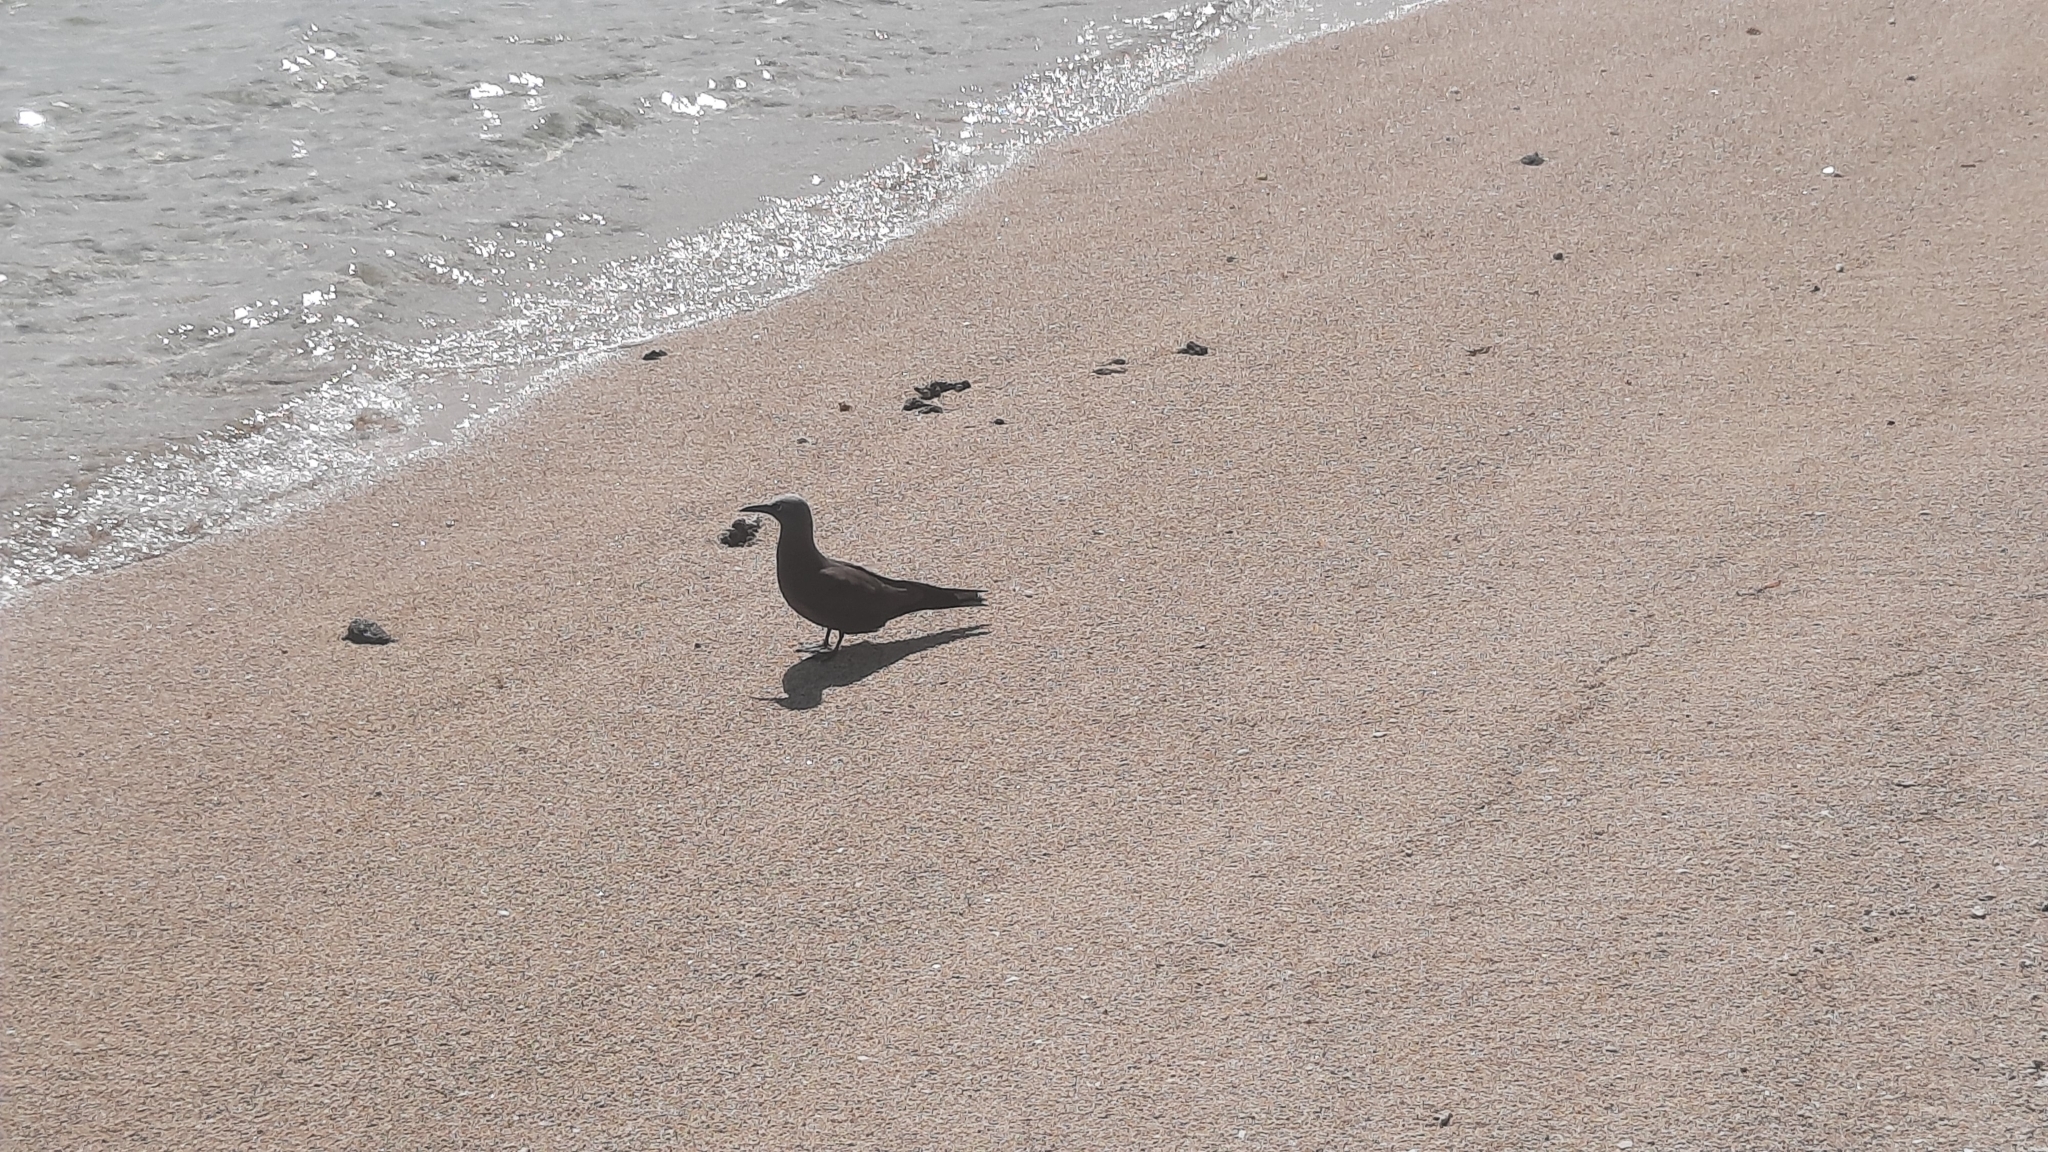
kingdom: Animalia
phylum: Chordata
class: Aves
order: Charadriiformes
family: Laridae
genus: Anous
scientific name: Anous stolidus
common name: Brown noddy
